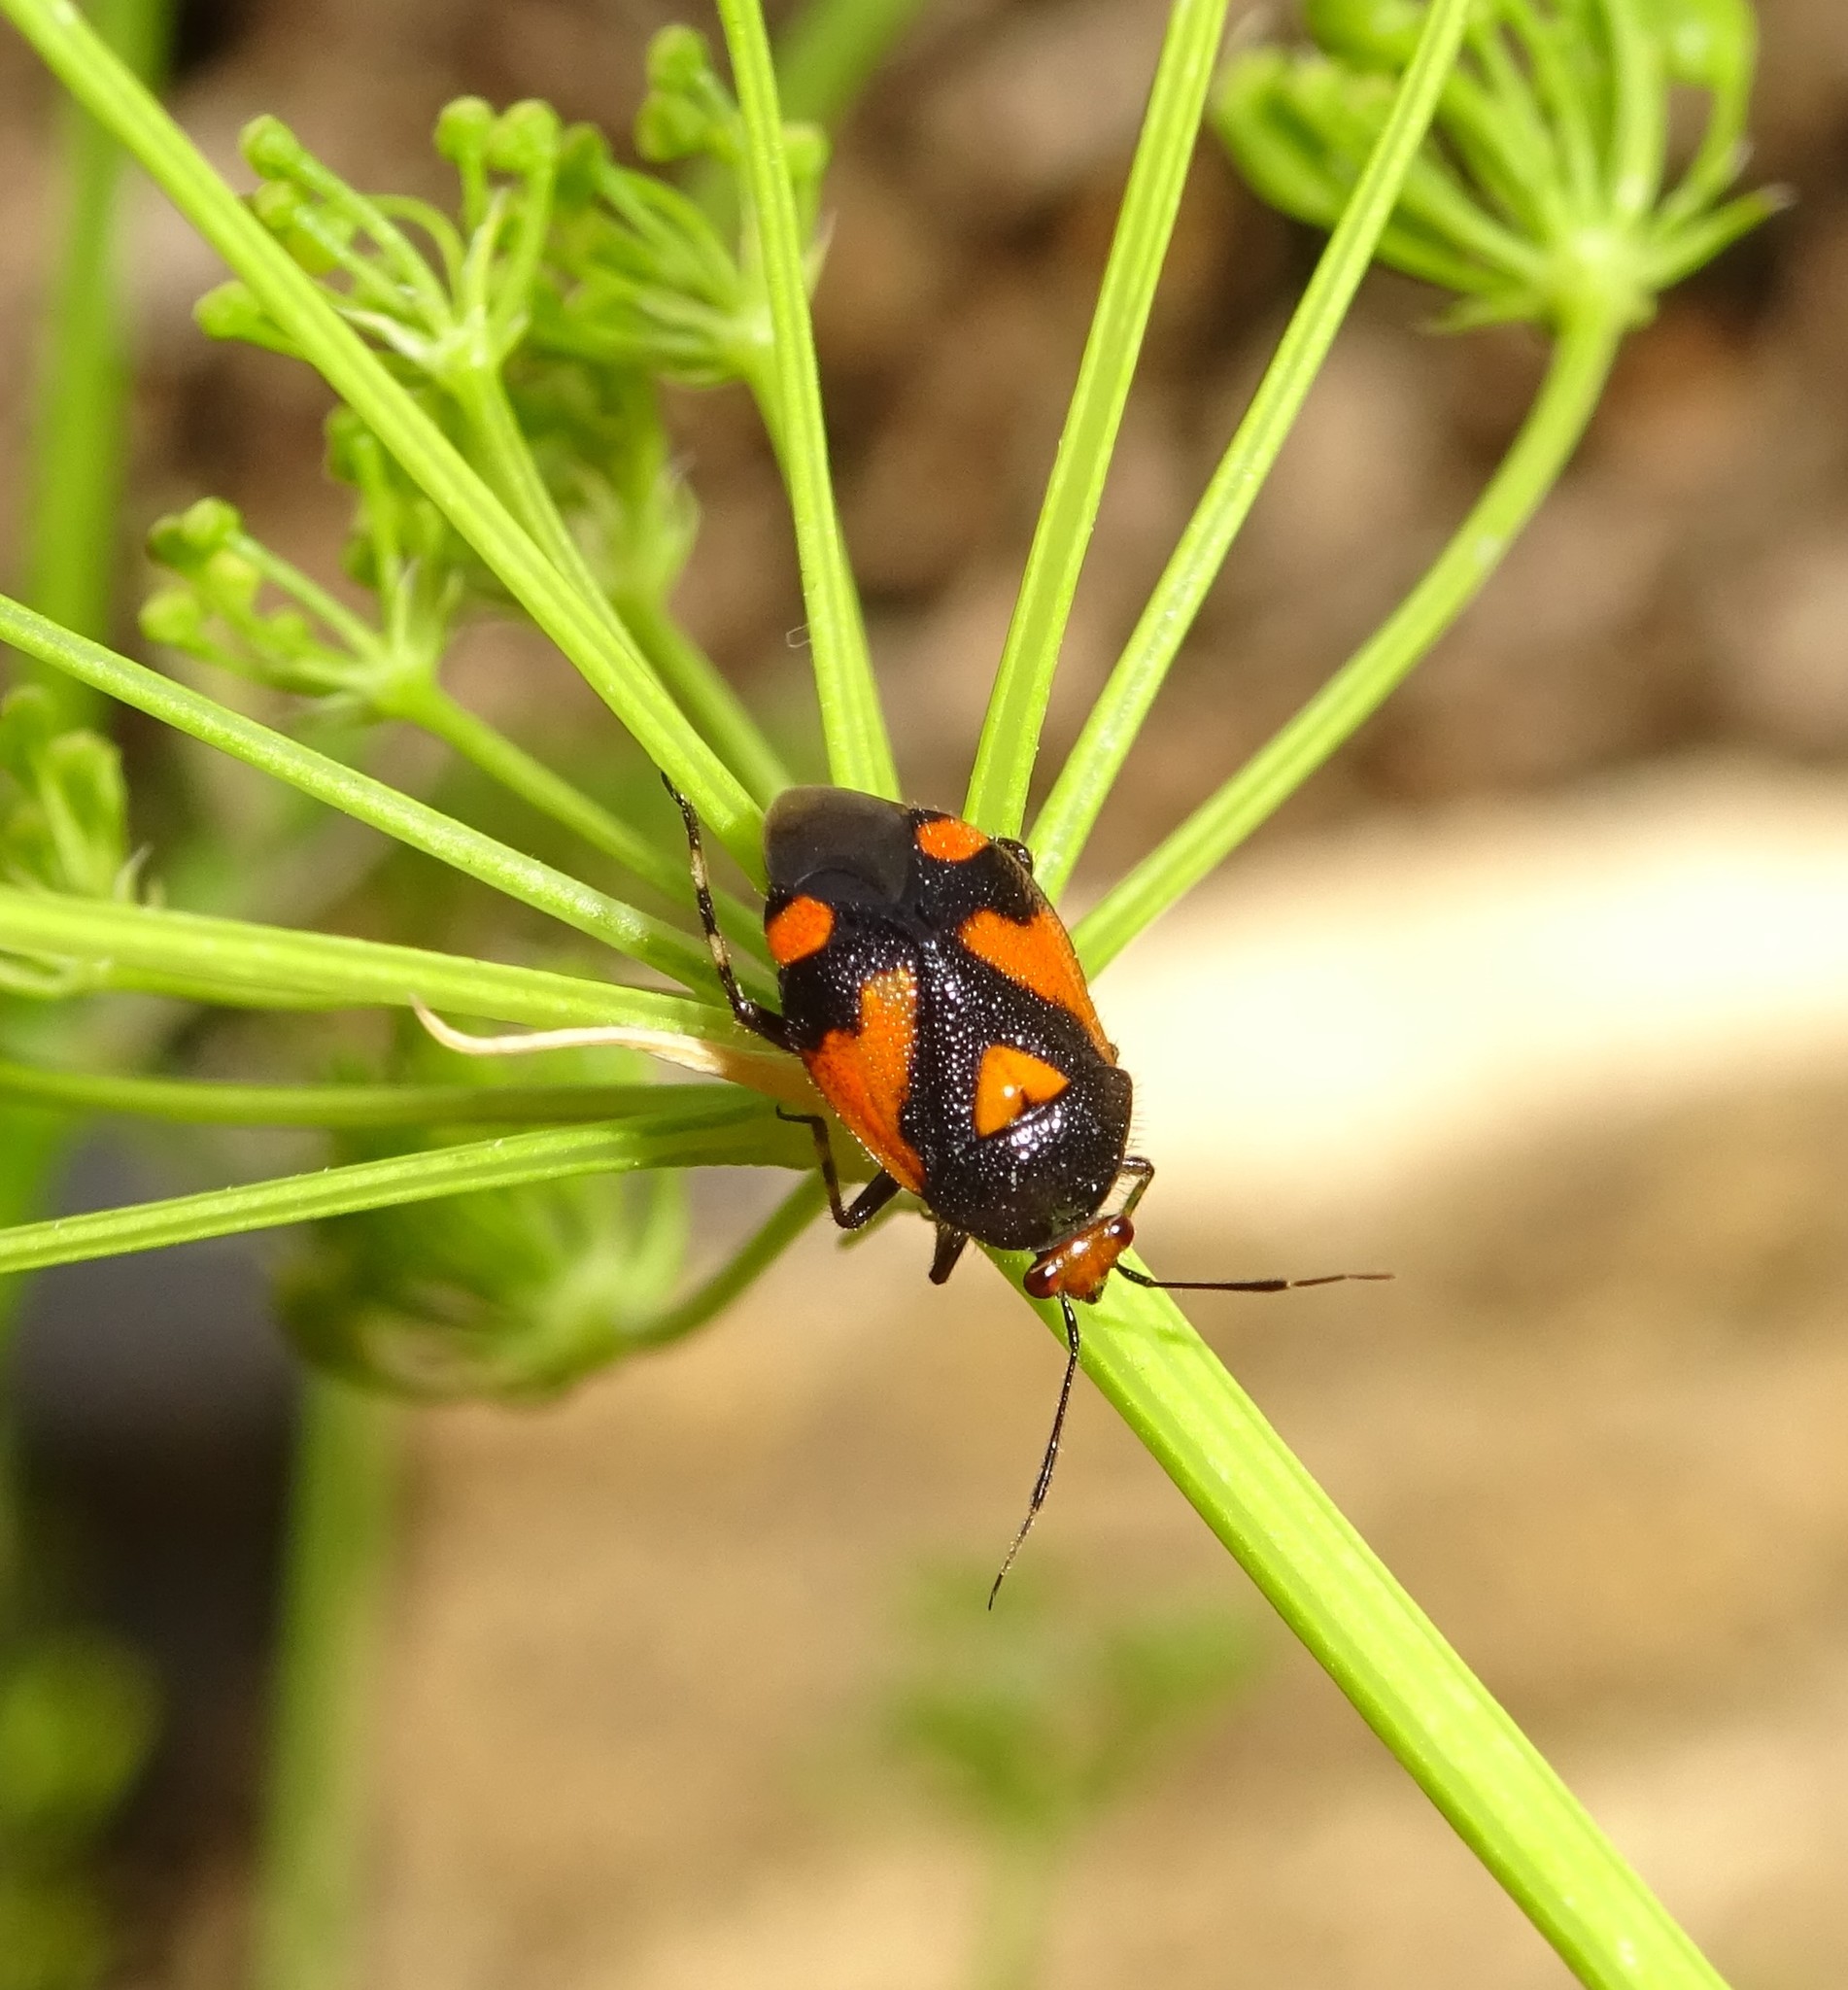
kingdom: Animalia
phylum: Arthropoda
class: Insecta
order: Hemiptera
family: Miridae
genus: Deraeocoris
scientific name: Deraeocoris schach
